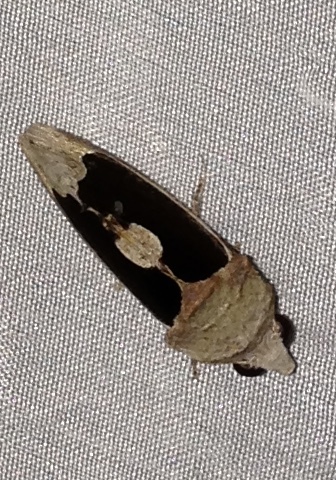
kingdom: Animalia
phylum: Arthropoda
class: Insecta
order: Lepidoptera
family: Erebidae
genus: Gonodonta
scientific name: Gonodonta sinaldus
